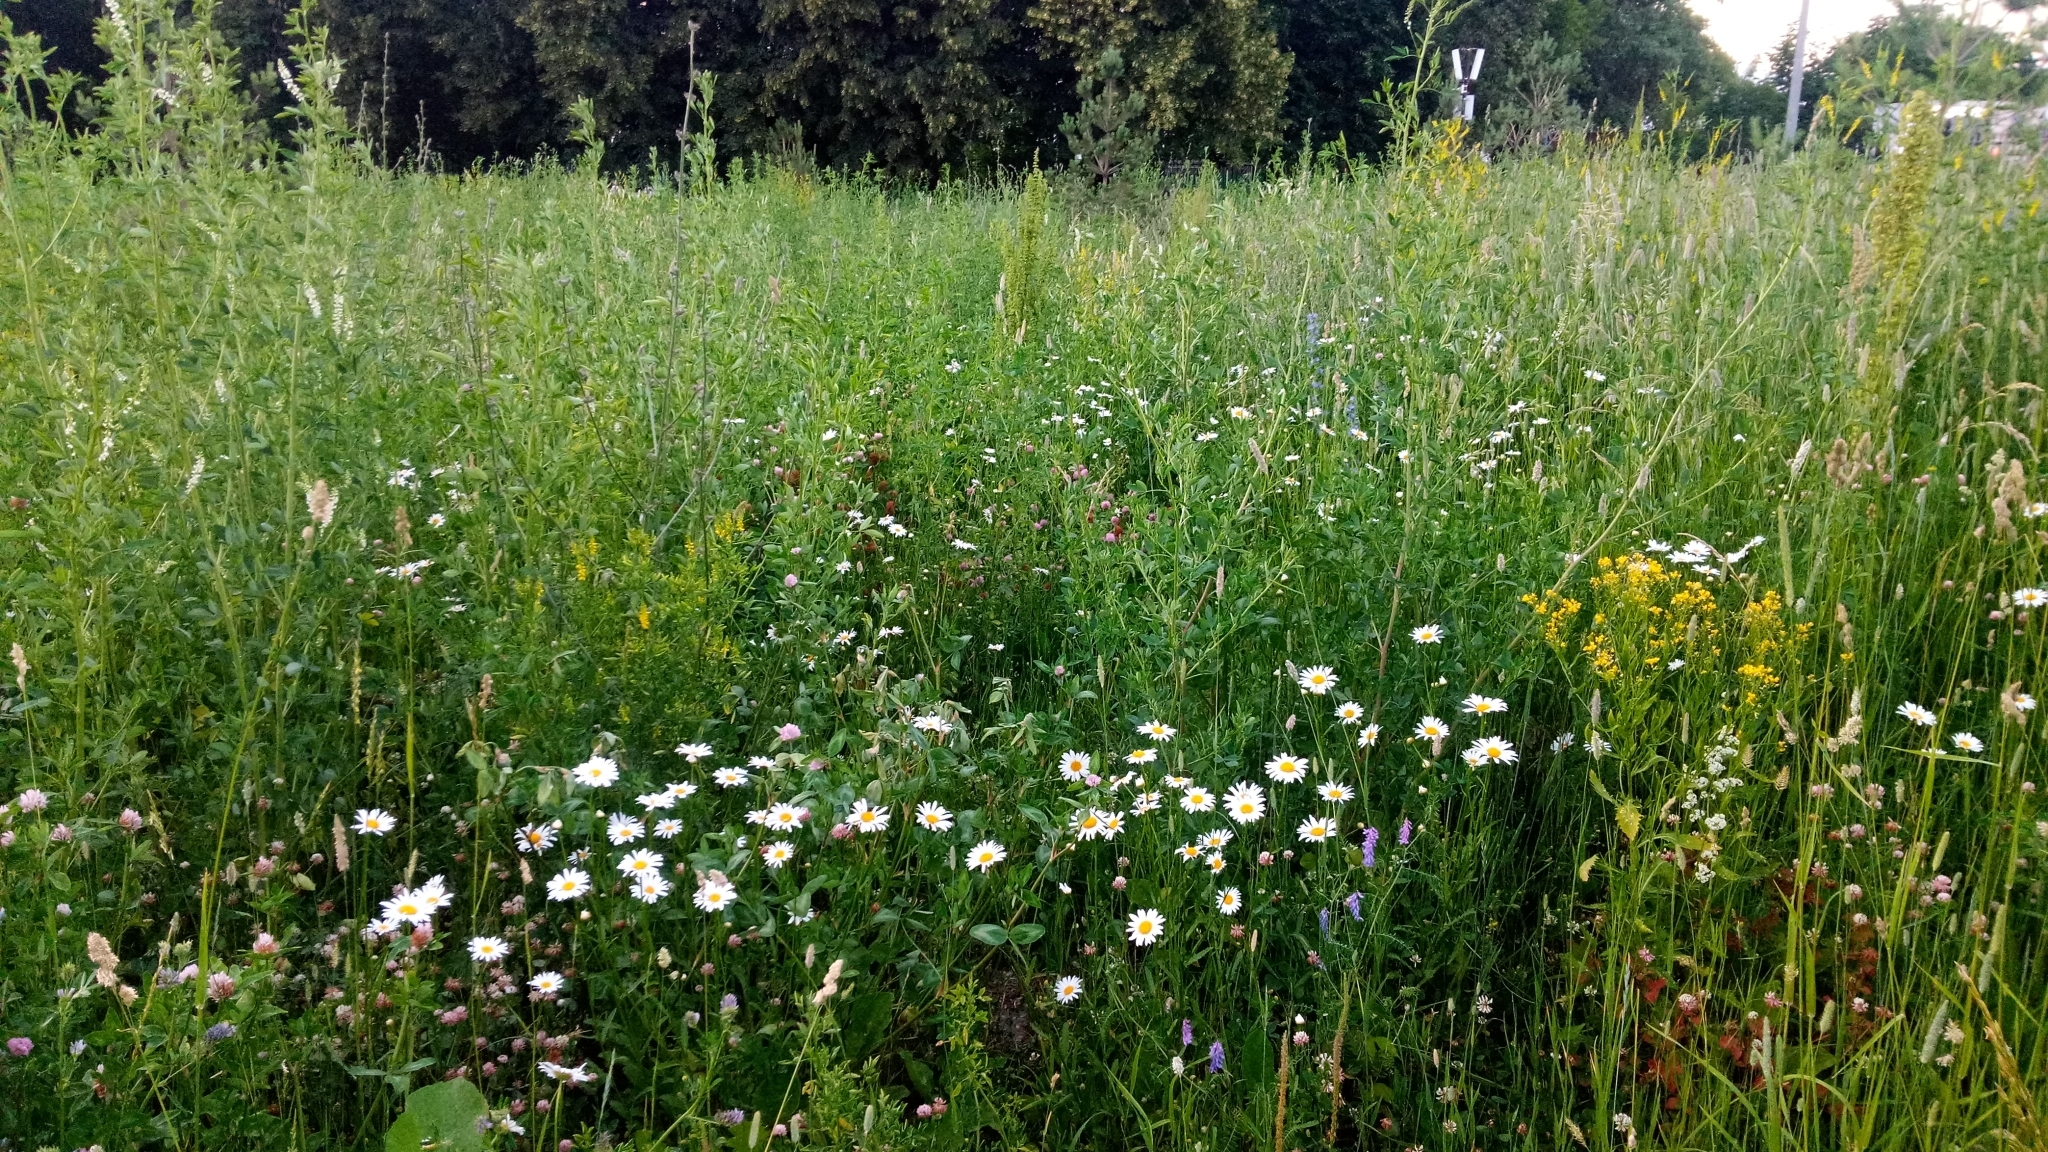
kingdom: Plantae
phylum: Tracheophyta
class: Magnoliopsida
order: Asterales
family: Asteraceae
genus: Leucanthemum
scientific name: Leucanthemum vulgare
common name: Oxeye daisy
